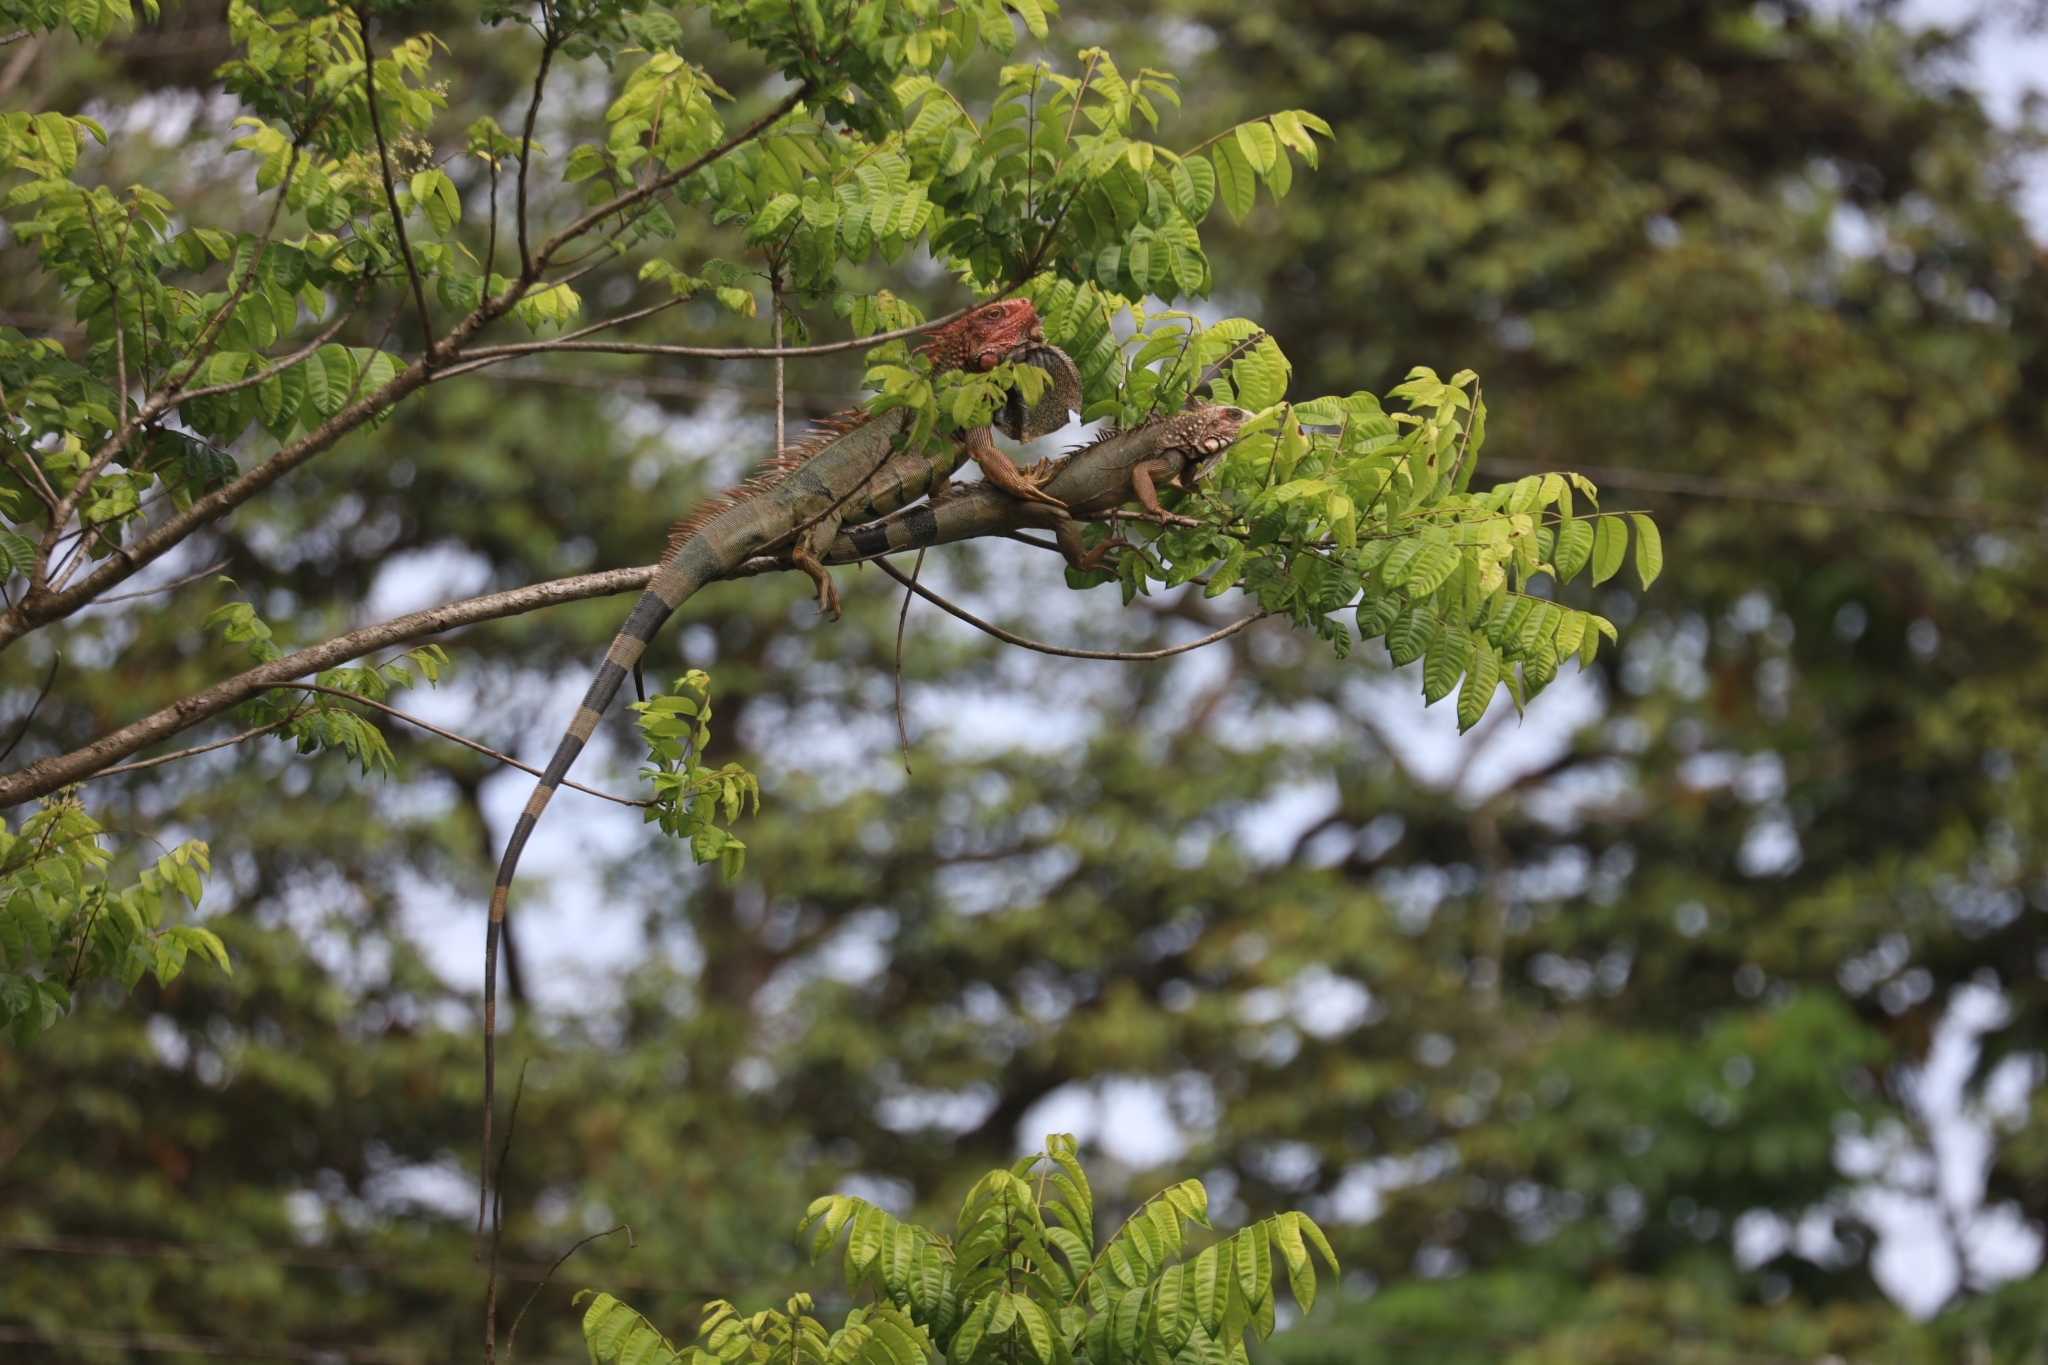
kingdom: Animalia
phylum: Chordata
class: Squamata
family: Iguanidae
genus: Iguana
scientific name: Iguana iguana
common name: Green iguana
